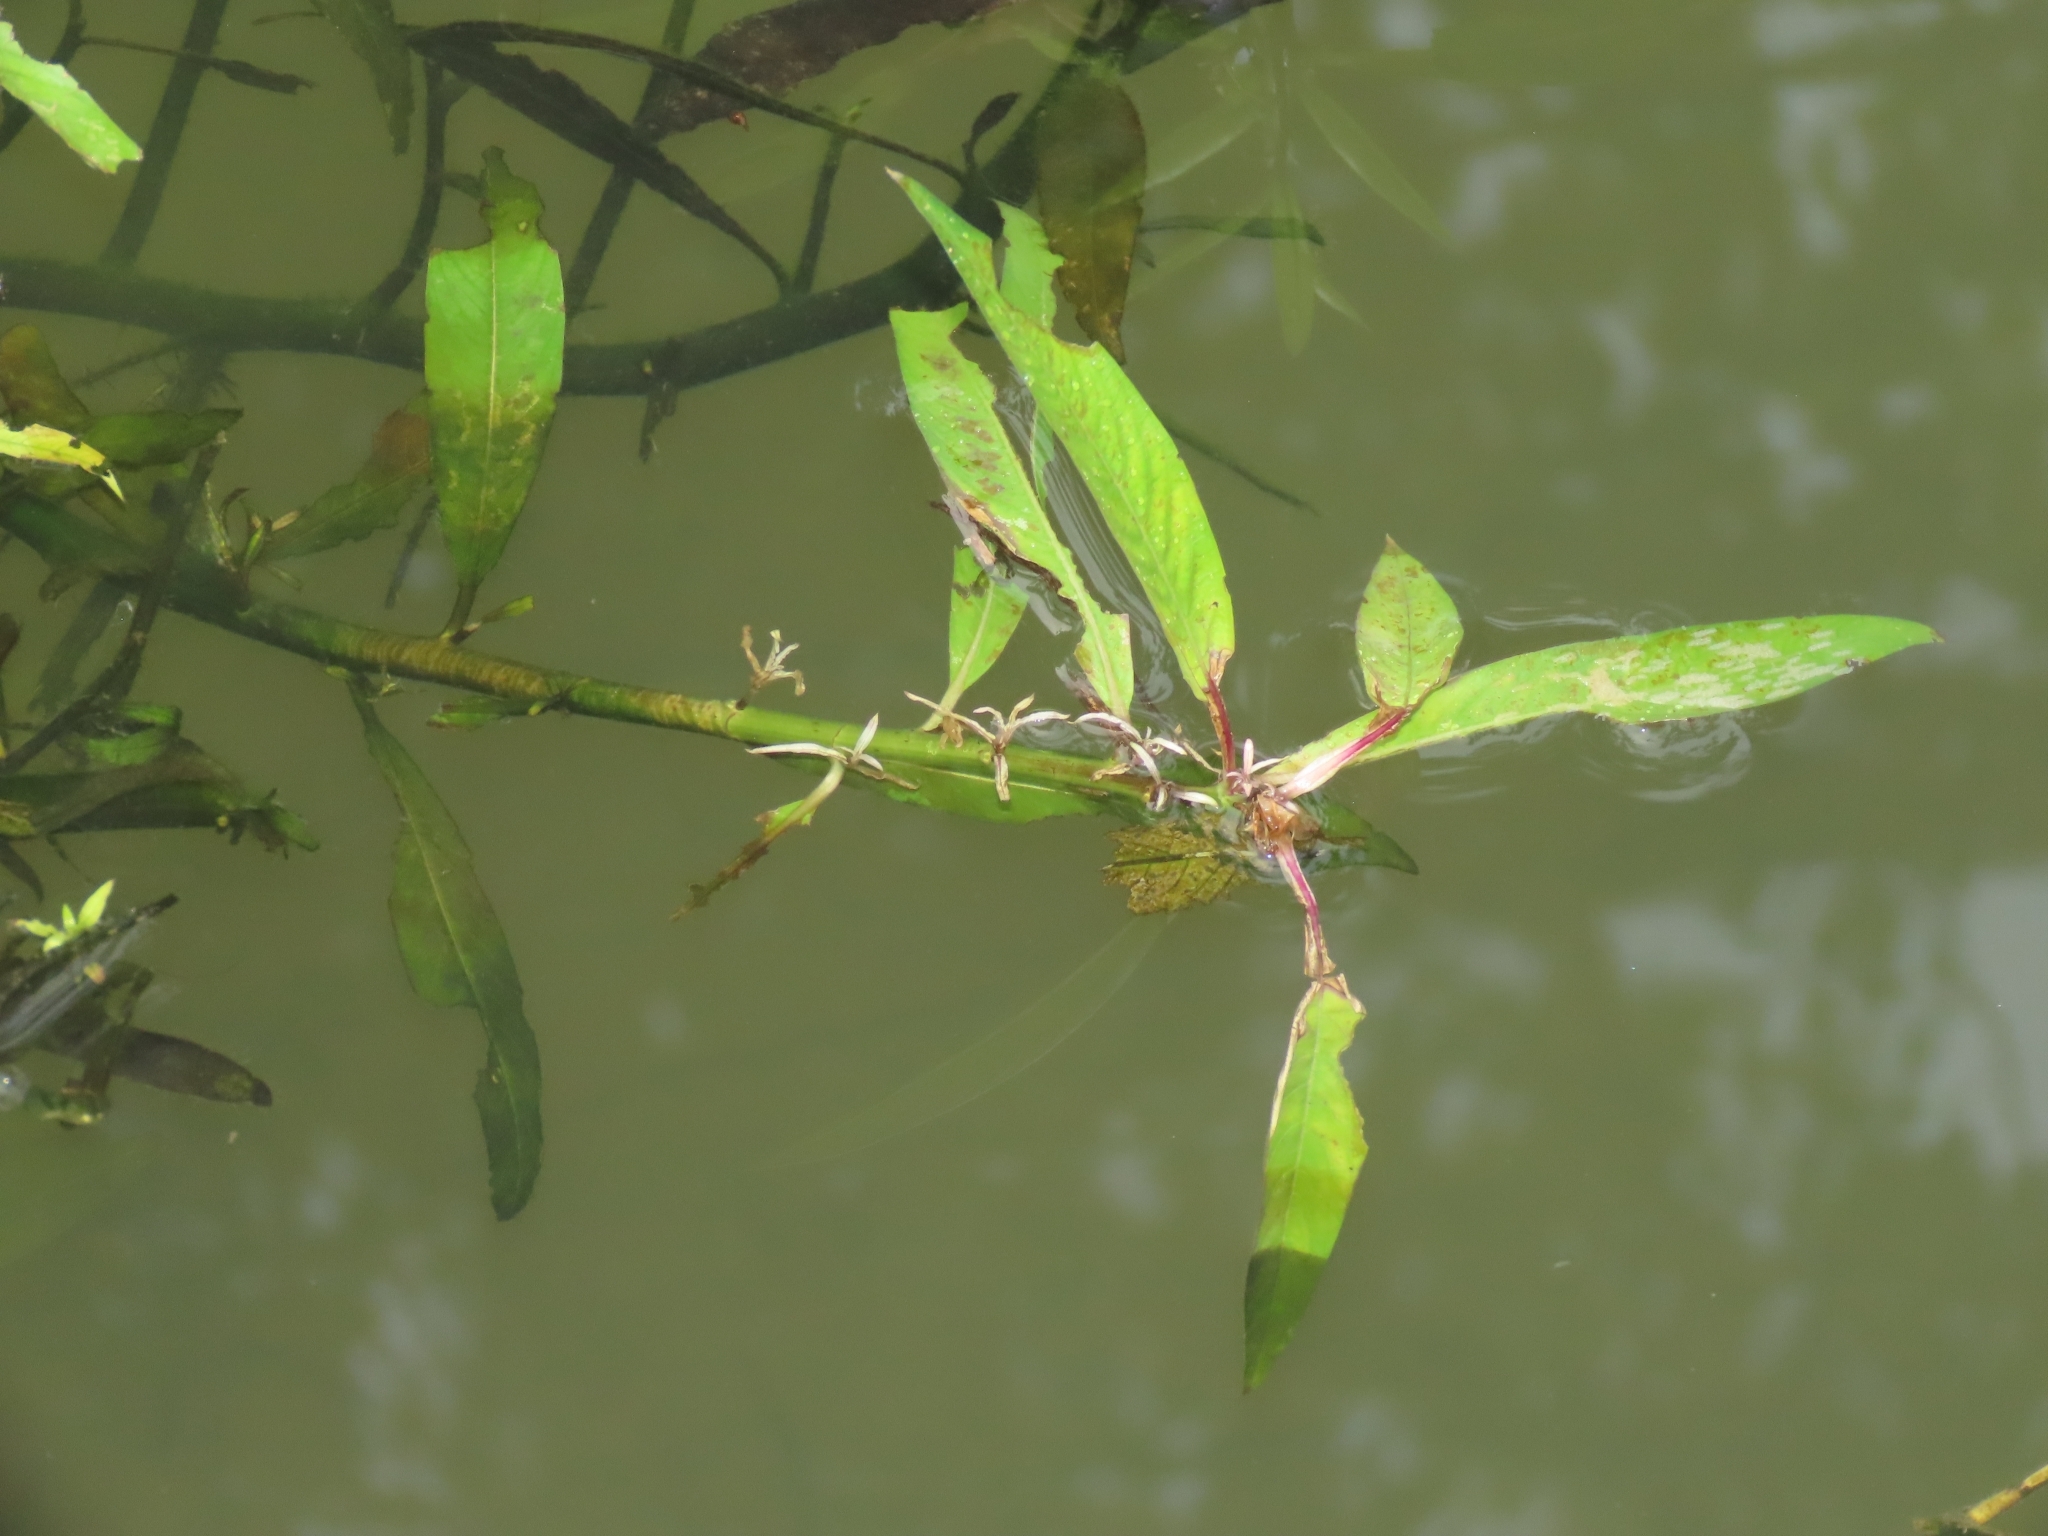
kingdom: Plantae
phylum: Tracheophyta
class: Magnoliopsida
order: Solanales
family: Hydroleaceae
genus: Hydrolea
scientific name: Hydrolea zeylanica
